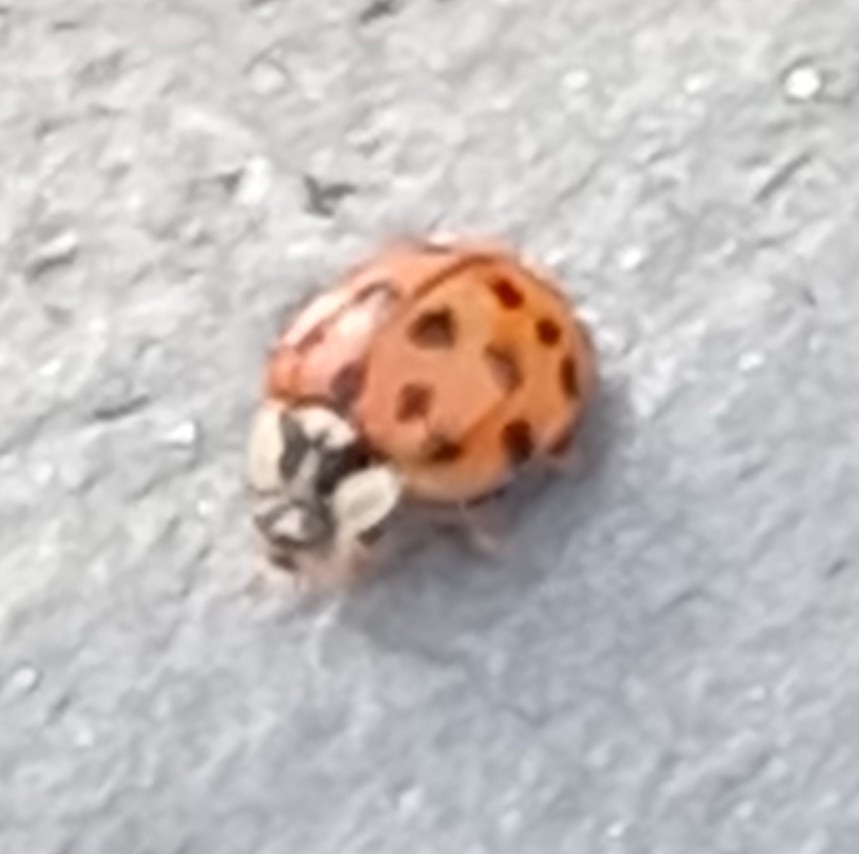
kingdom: Animalia
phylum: Arthropoda
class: Insecta
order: Coleoptera
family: Coccinellidae
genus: Harmonia
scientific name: Harmonia axyridis
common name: Harlequin ladybird
